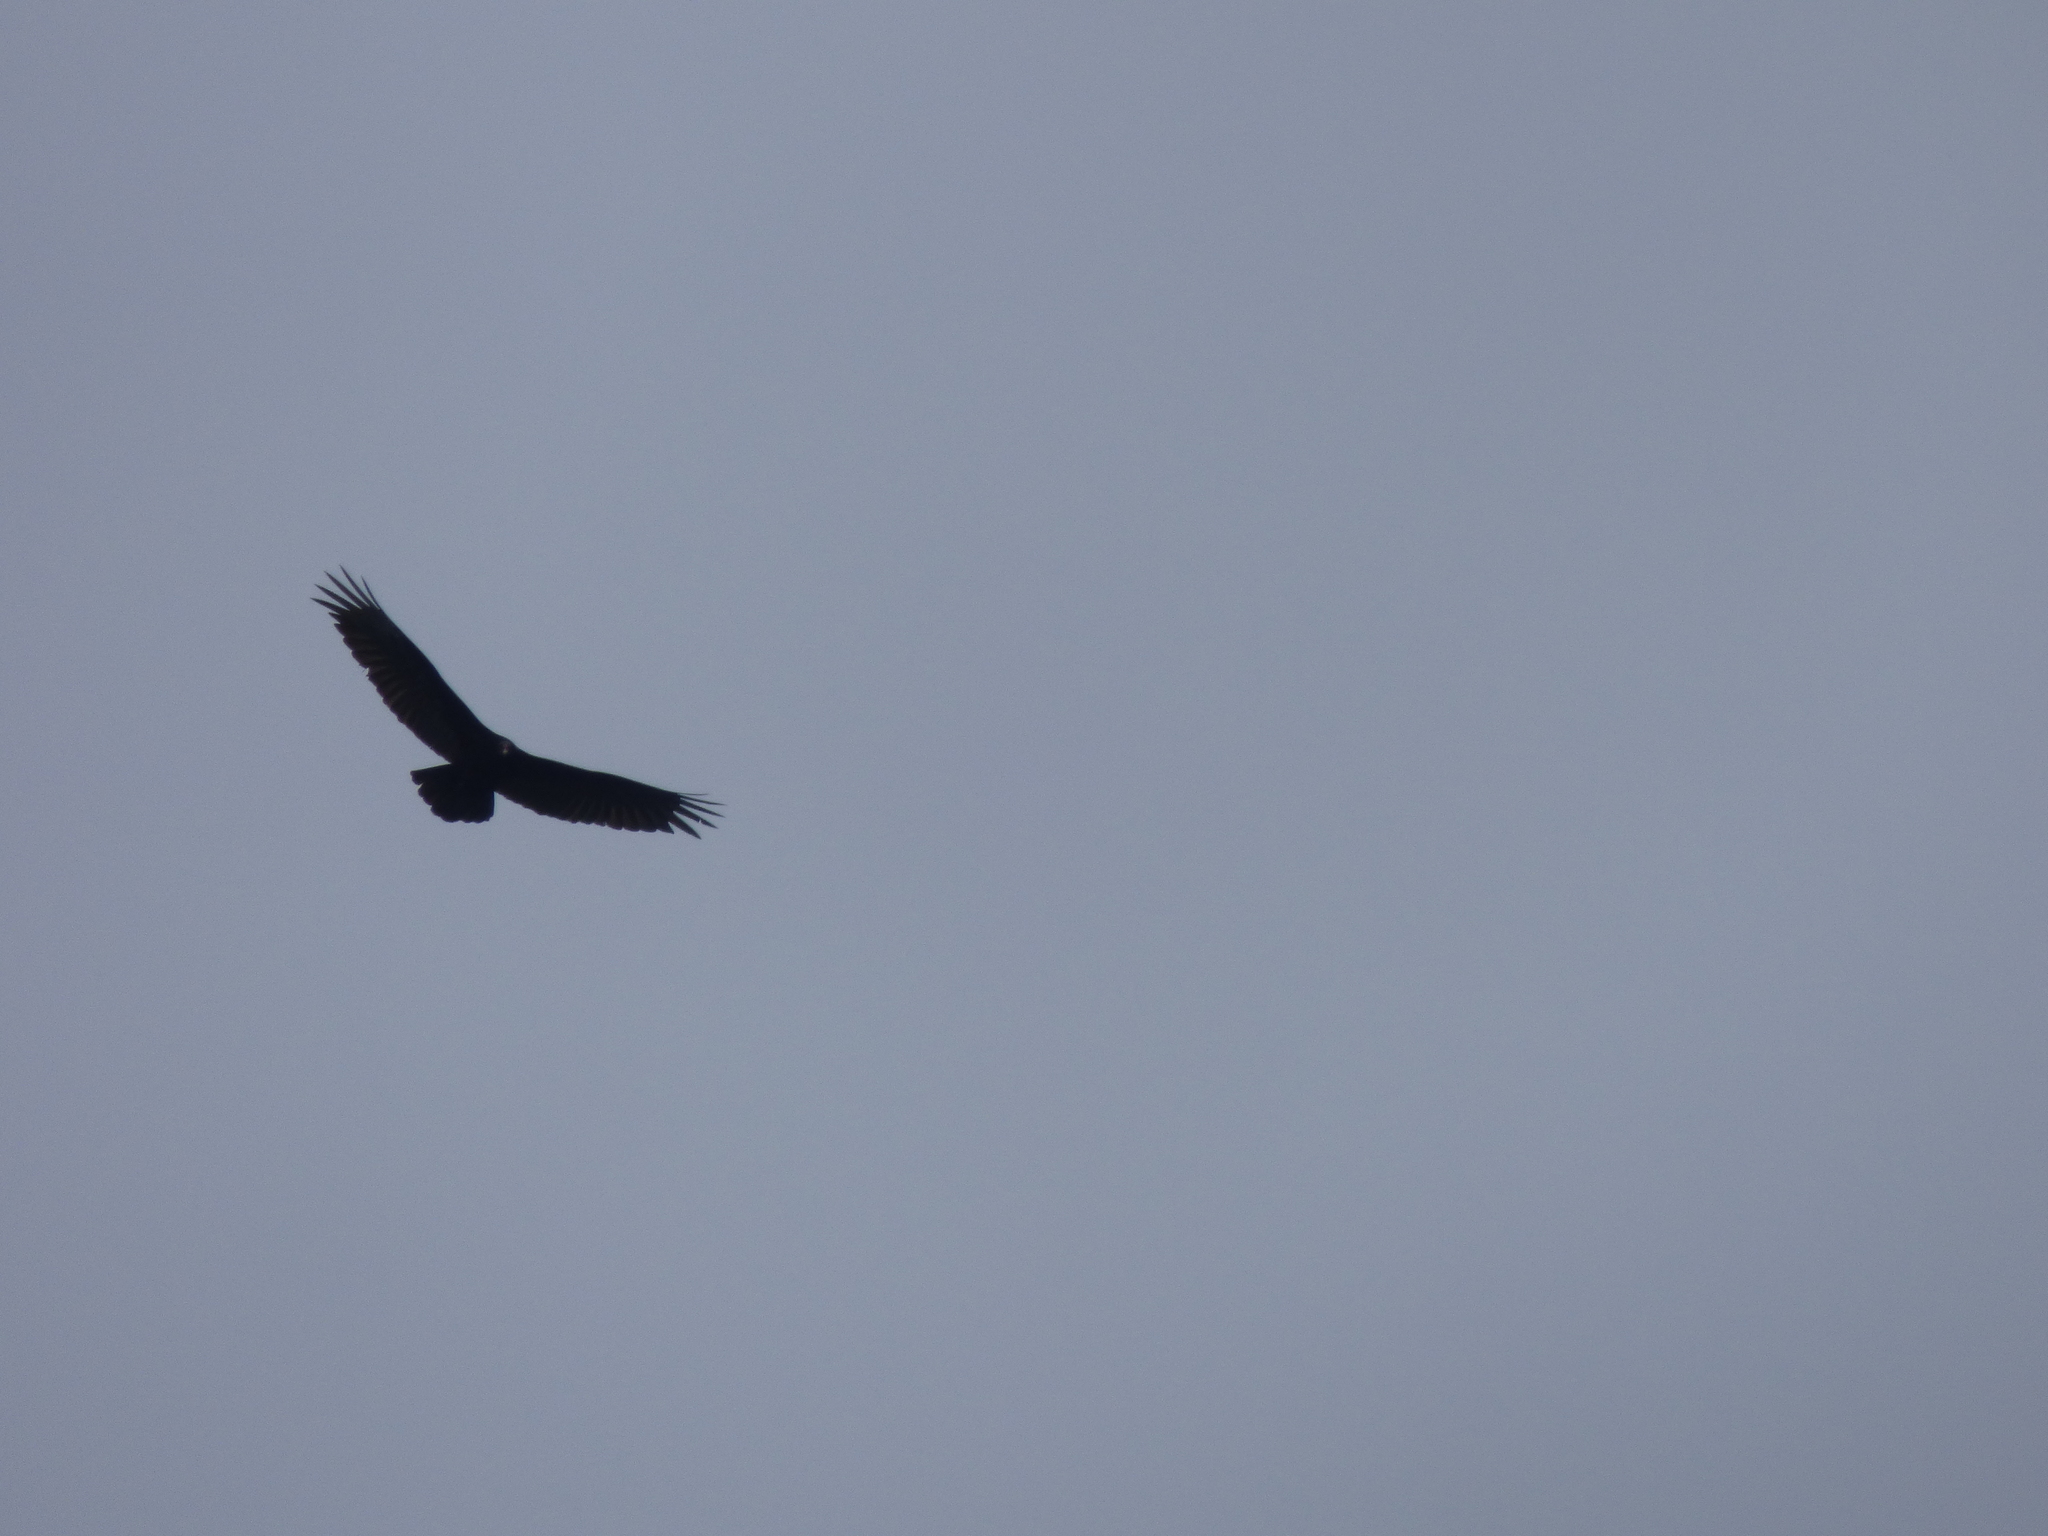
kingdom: Animalia
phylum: Chordata
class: Aves
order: Accipitriformes
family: Cathartidae
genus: Cathartes
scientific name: Cathartes aura
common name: Turkey vulture
